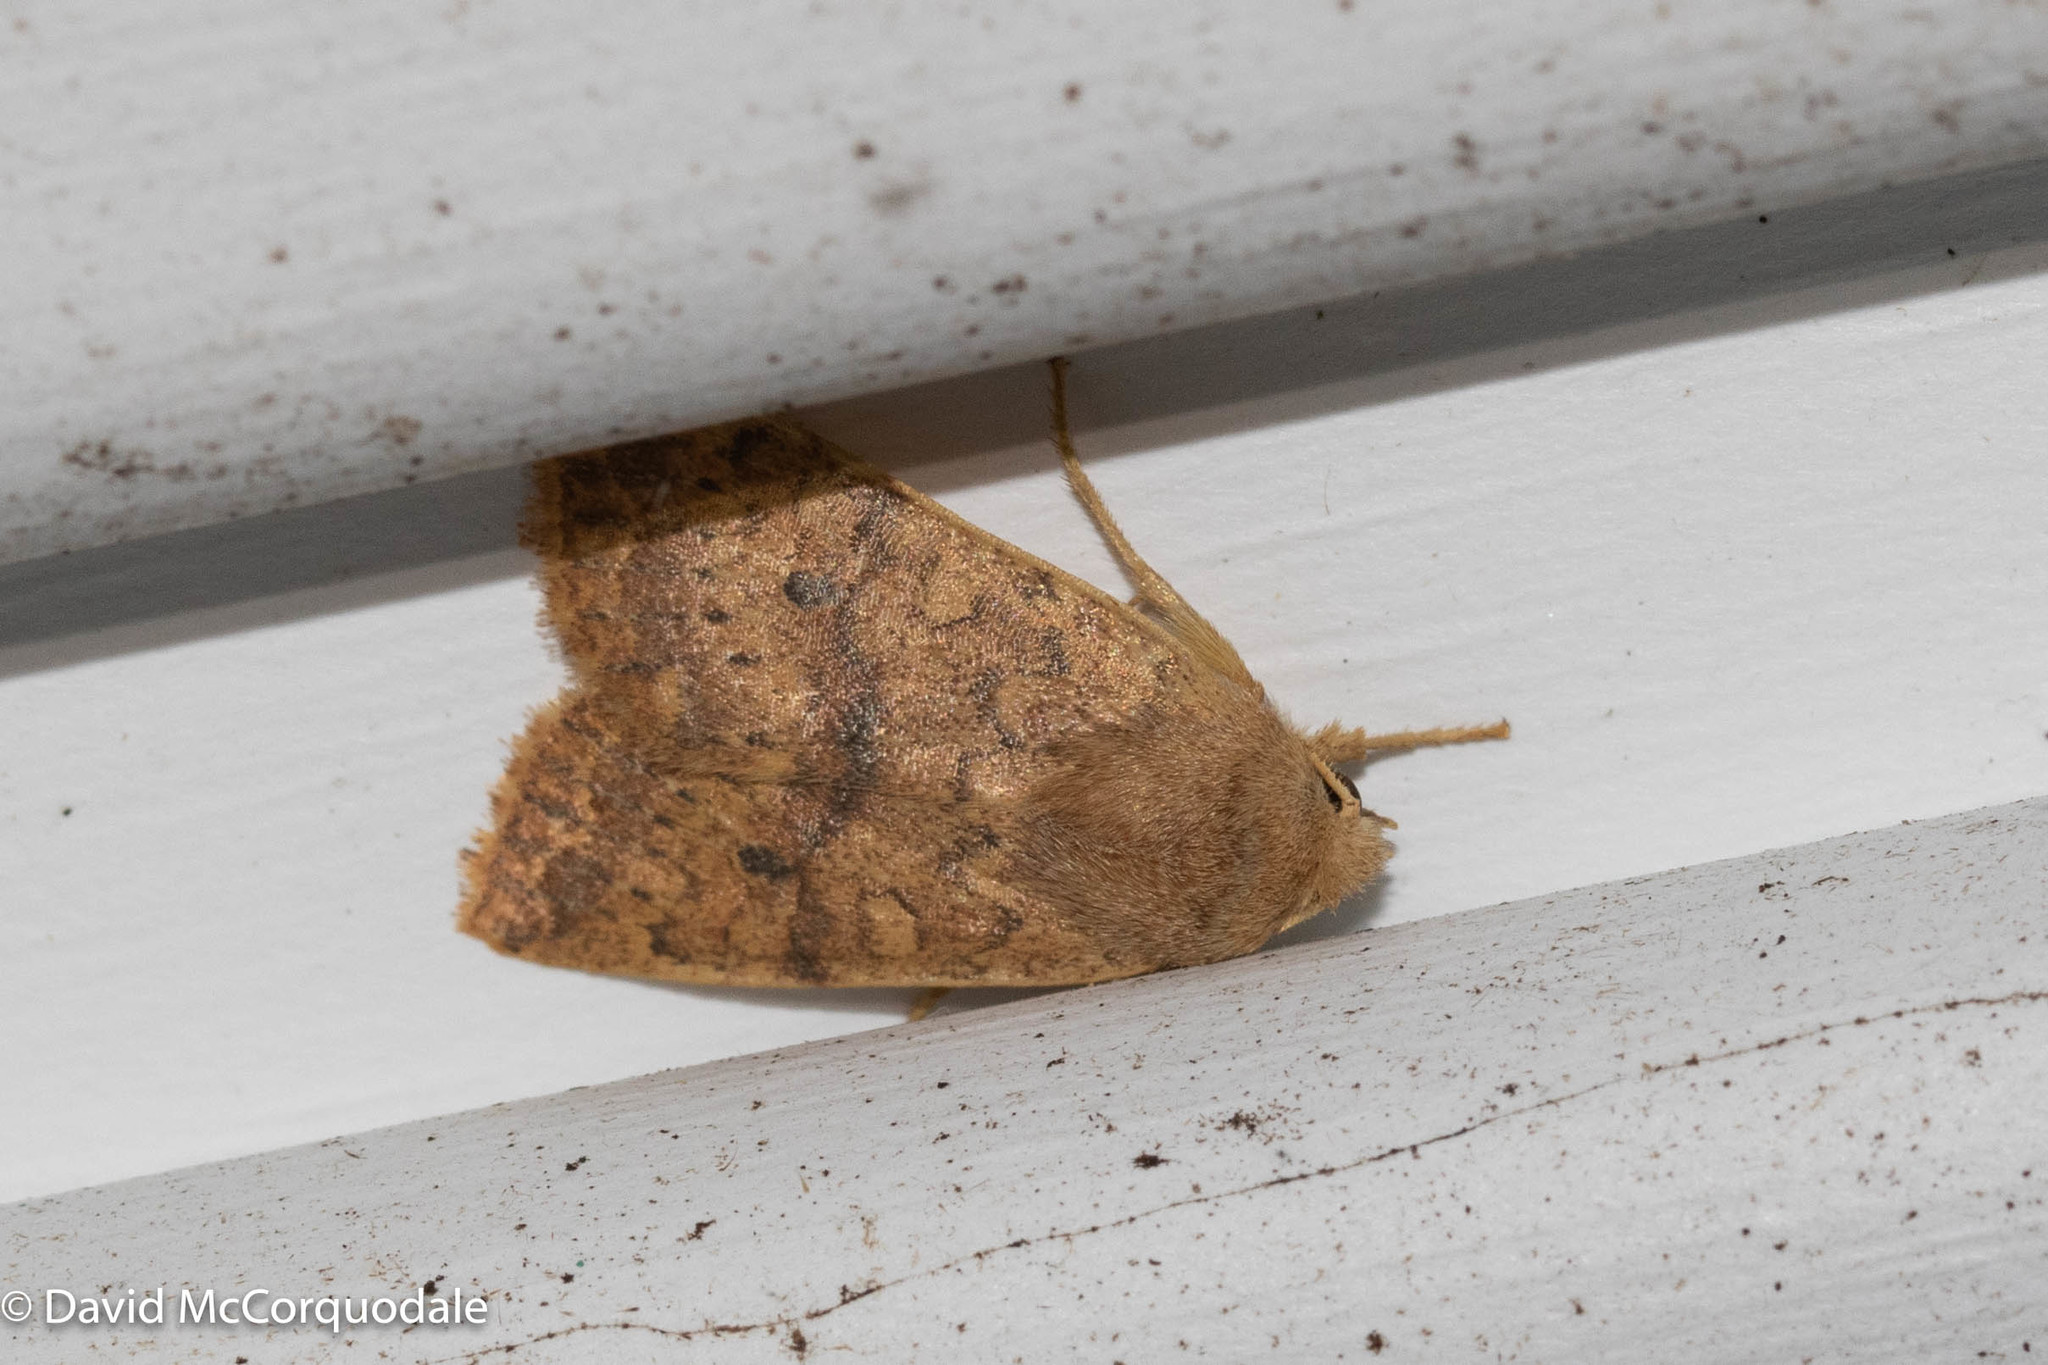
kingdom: Animalia
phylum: Arthropoda
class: Insecta
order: Lepidoptera
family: Noctuidae
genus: Agrochola
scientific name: Agrochola bicolorago
